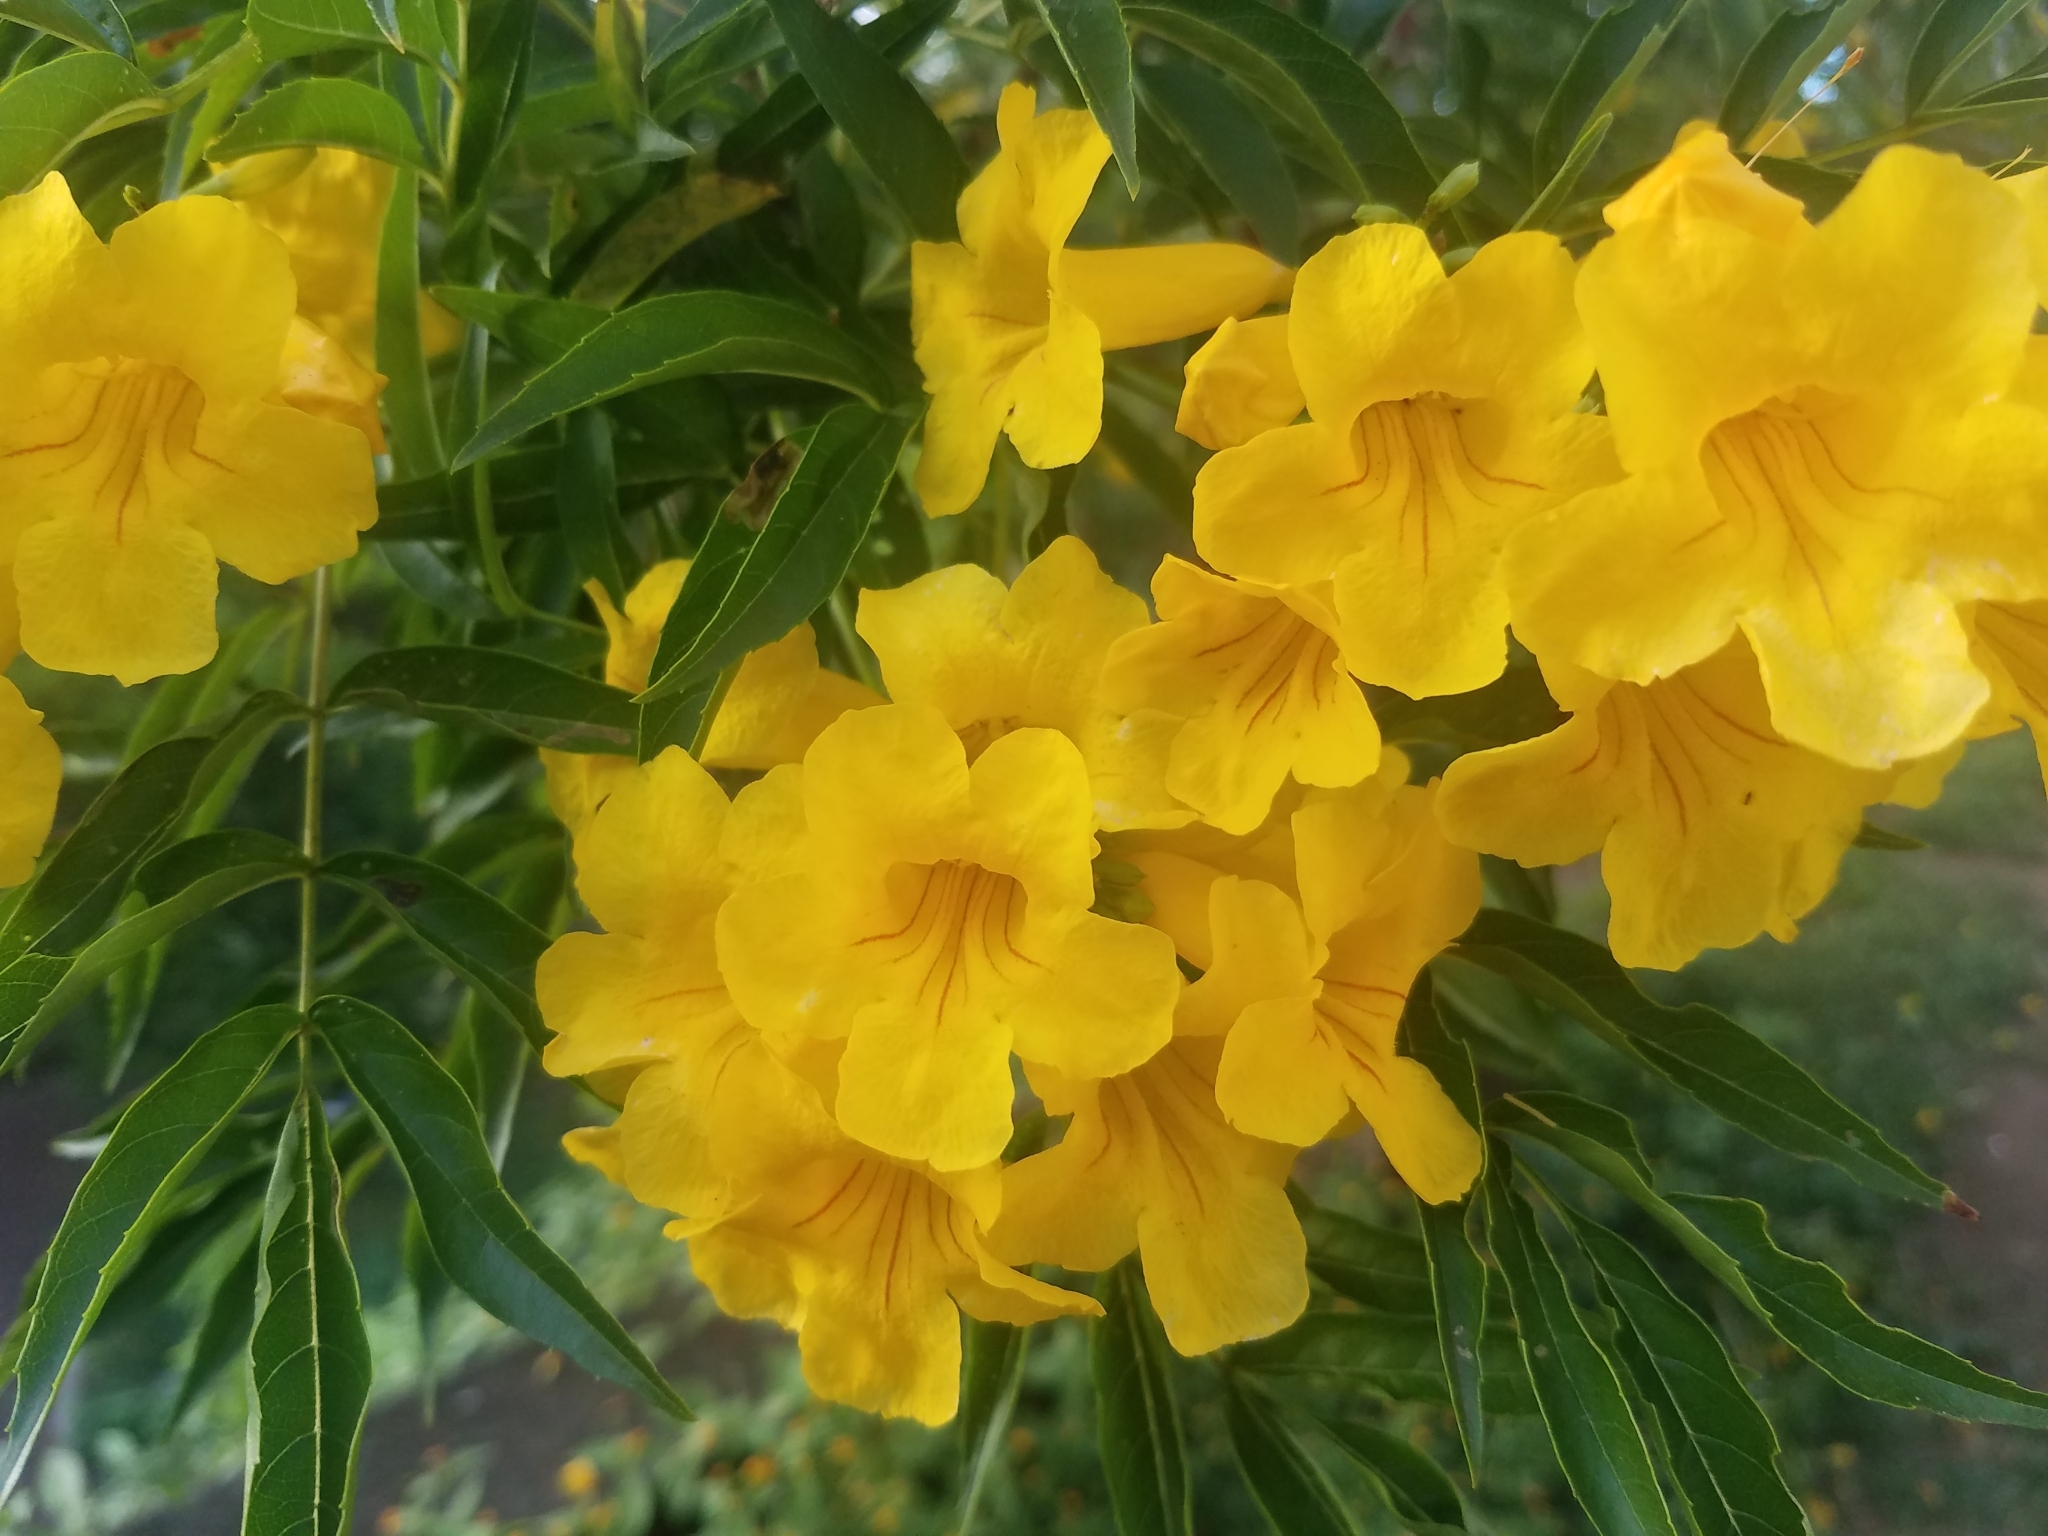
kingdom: Plantae
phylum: Tracheophyta
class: Magnoliopsida
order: Lamiales
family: Bignoniaceae
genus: Tecoma
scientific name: Tecoma stans
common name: Yellow trumpetbush
